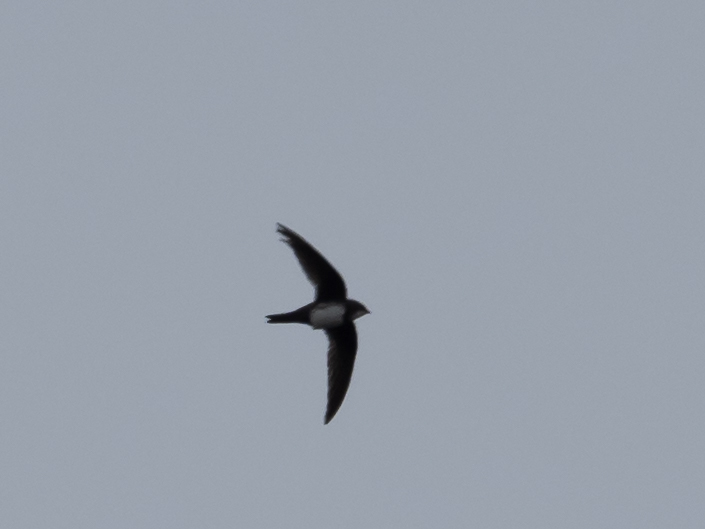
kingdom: Animalia
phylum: Chordata
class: Aves
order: Apodiformes
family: Apodidae
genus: Tachymarptis
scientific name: Tachymarptis melba
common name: Alpine swift
